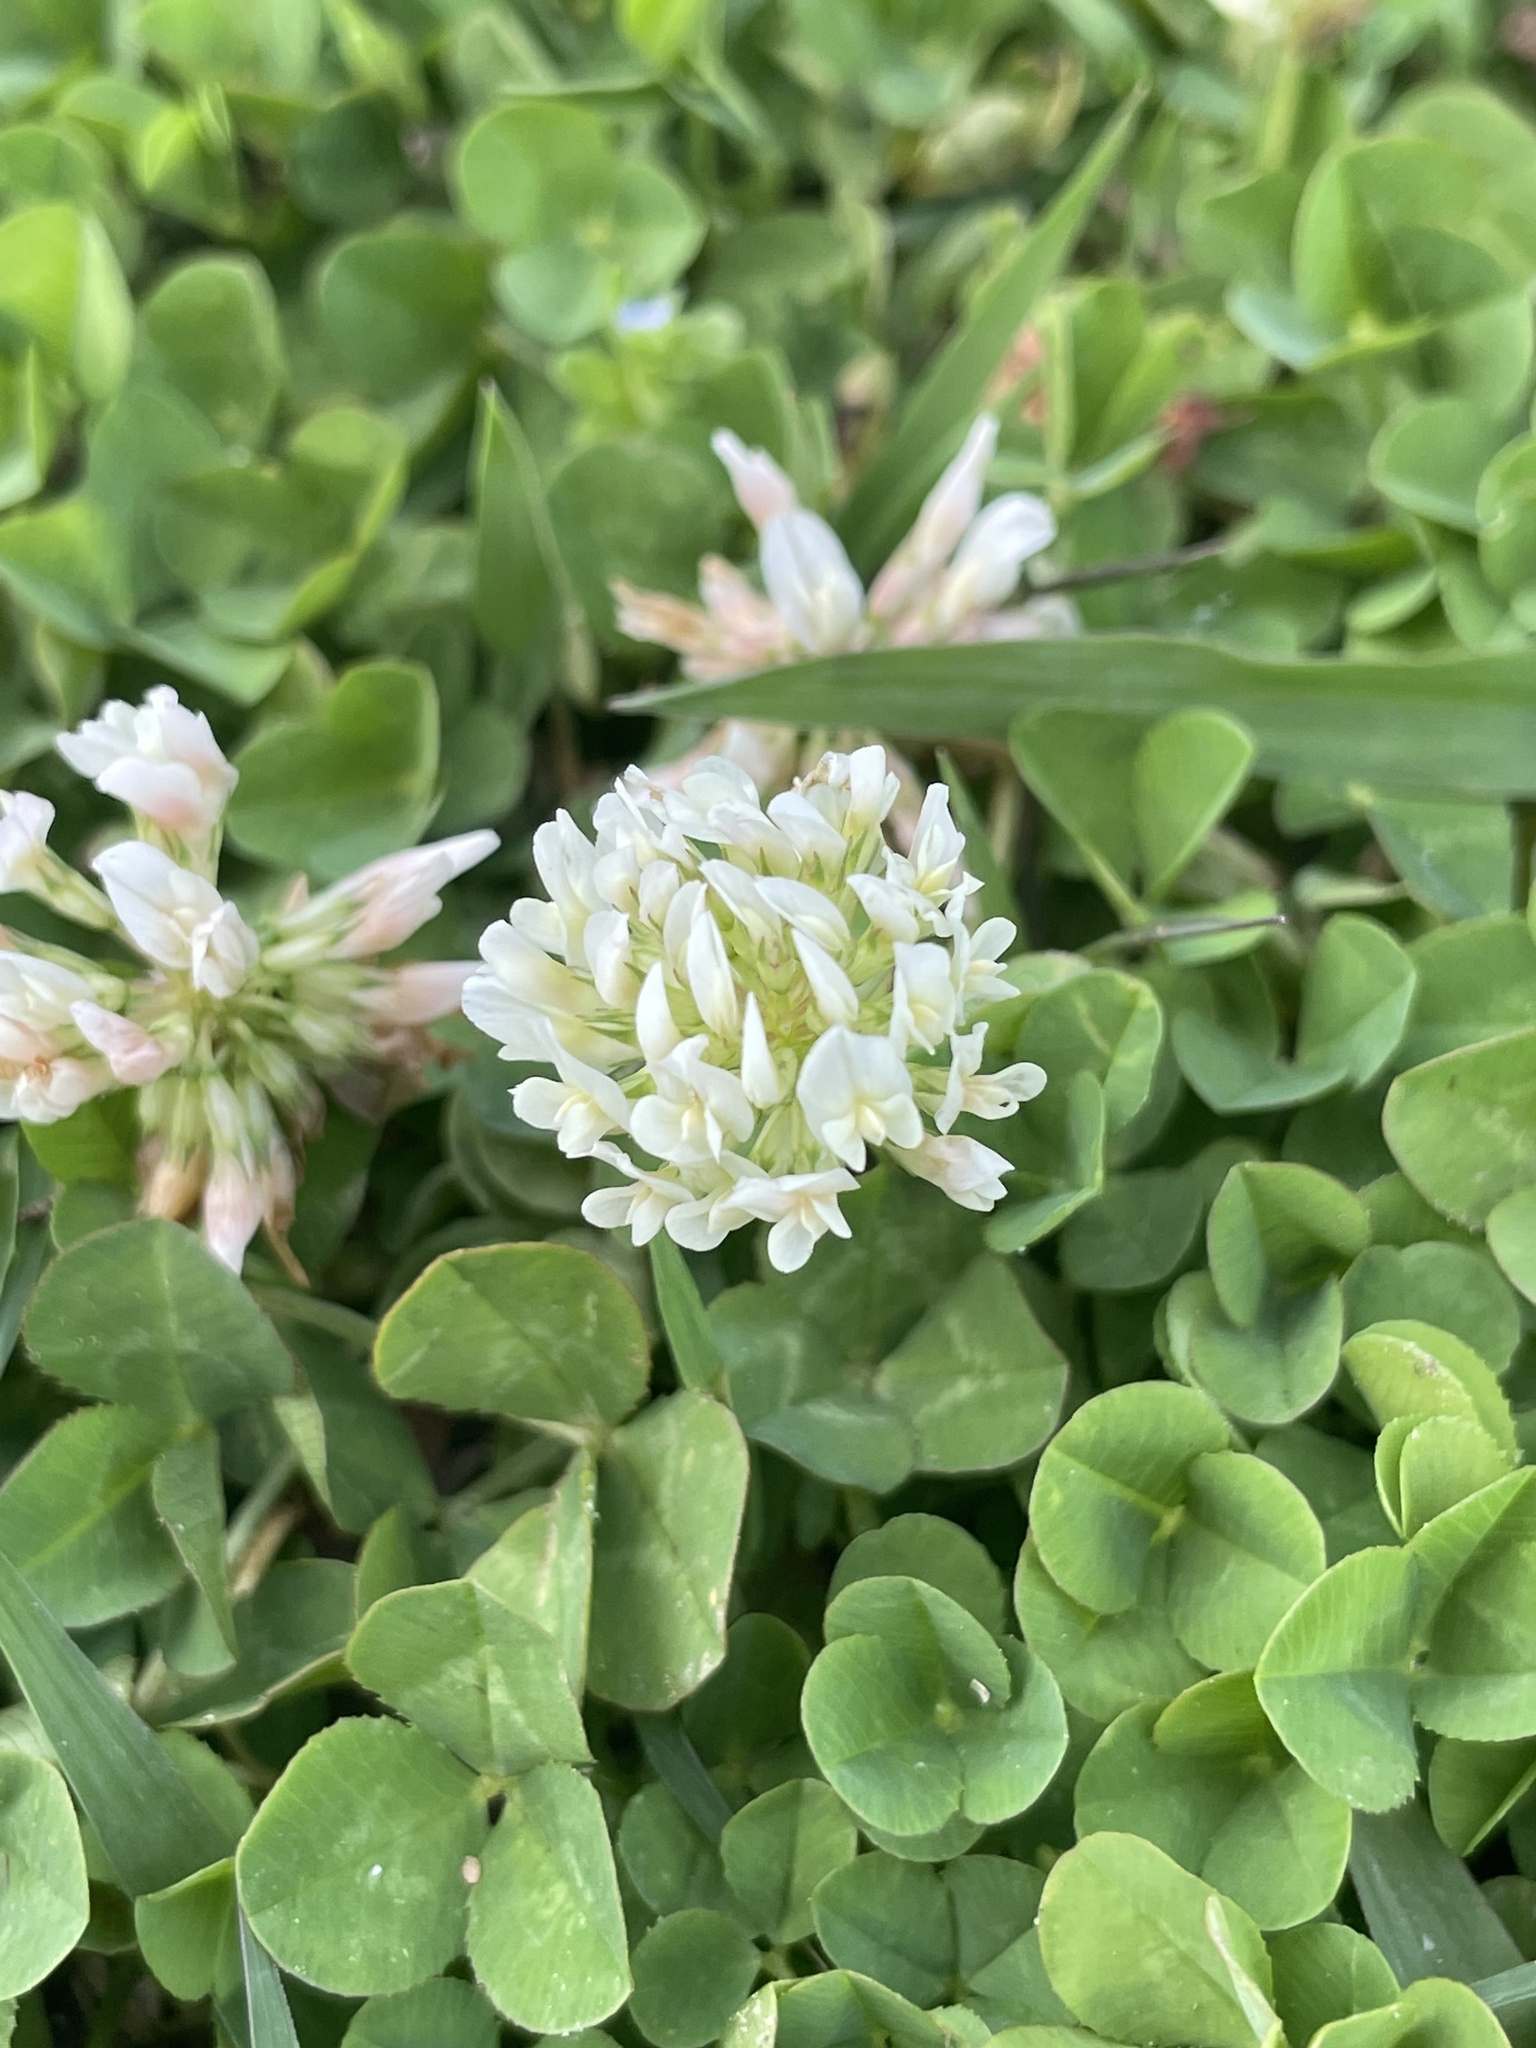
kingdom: Plantae
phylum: Tracheophyta
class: Magnoliopsida
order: Fabales
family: Fabaceae
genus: Trifolium
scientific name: Trifolium repens
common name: White clover
